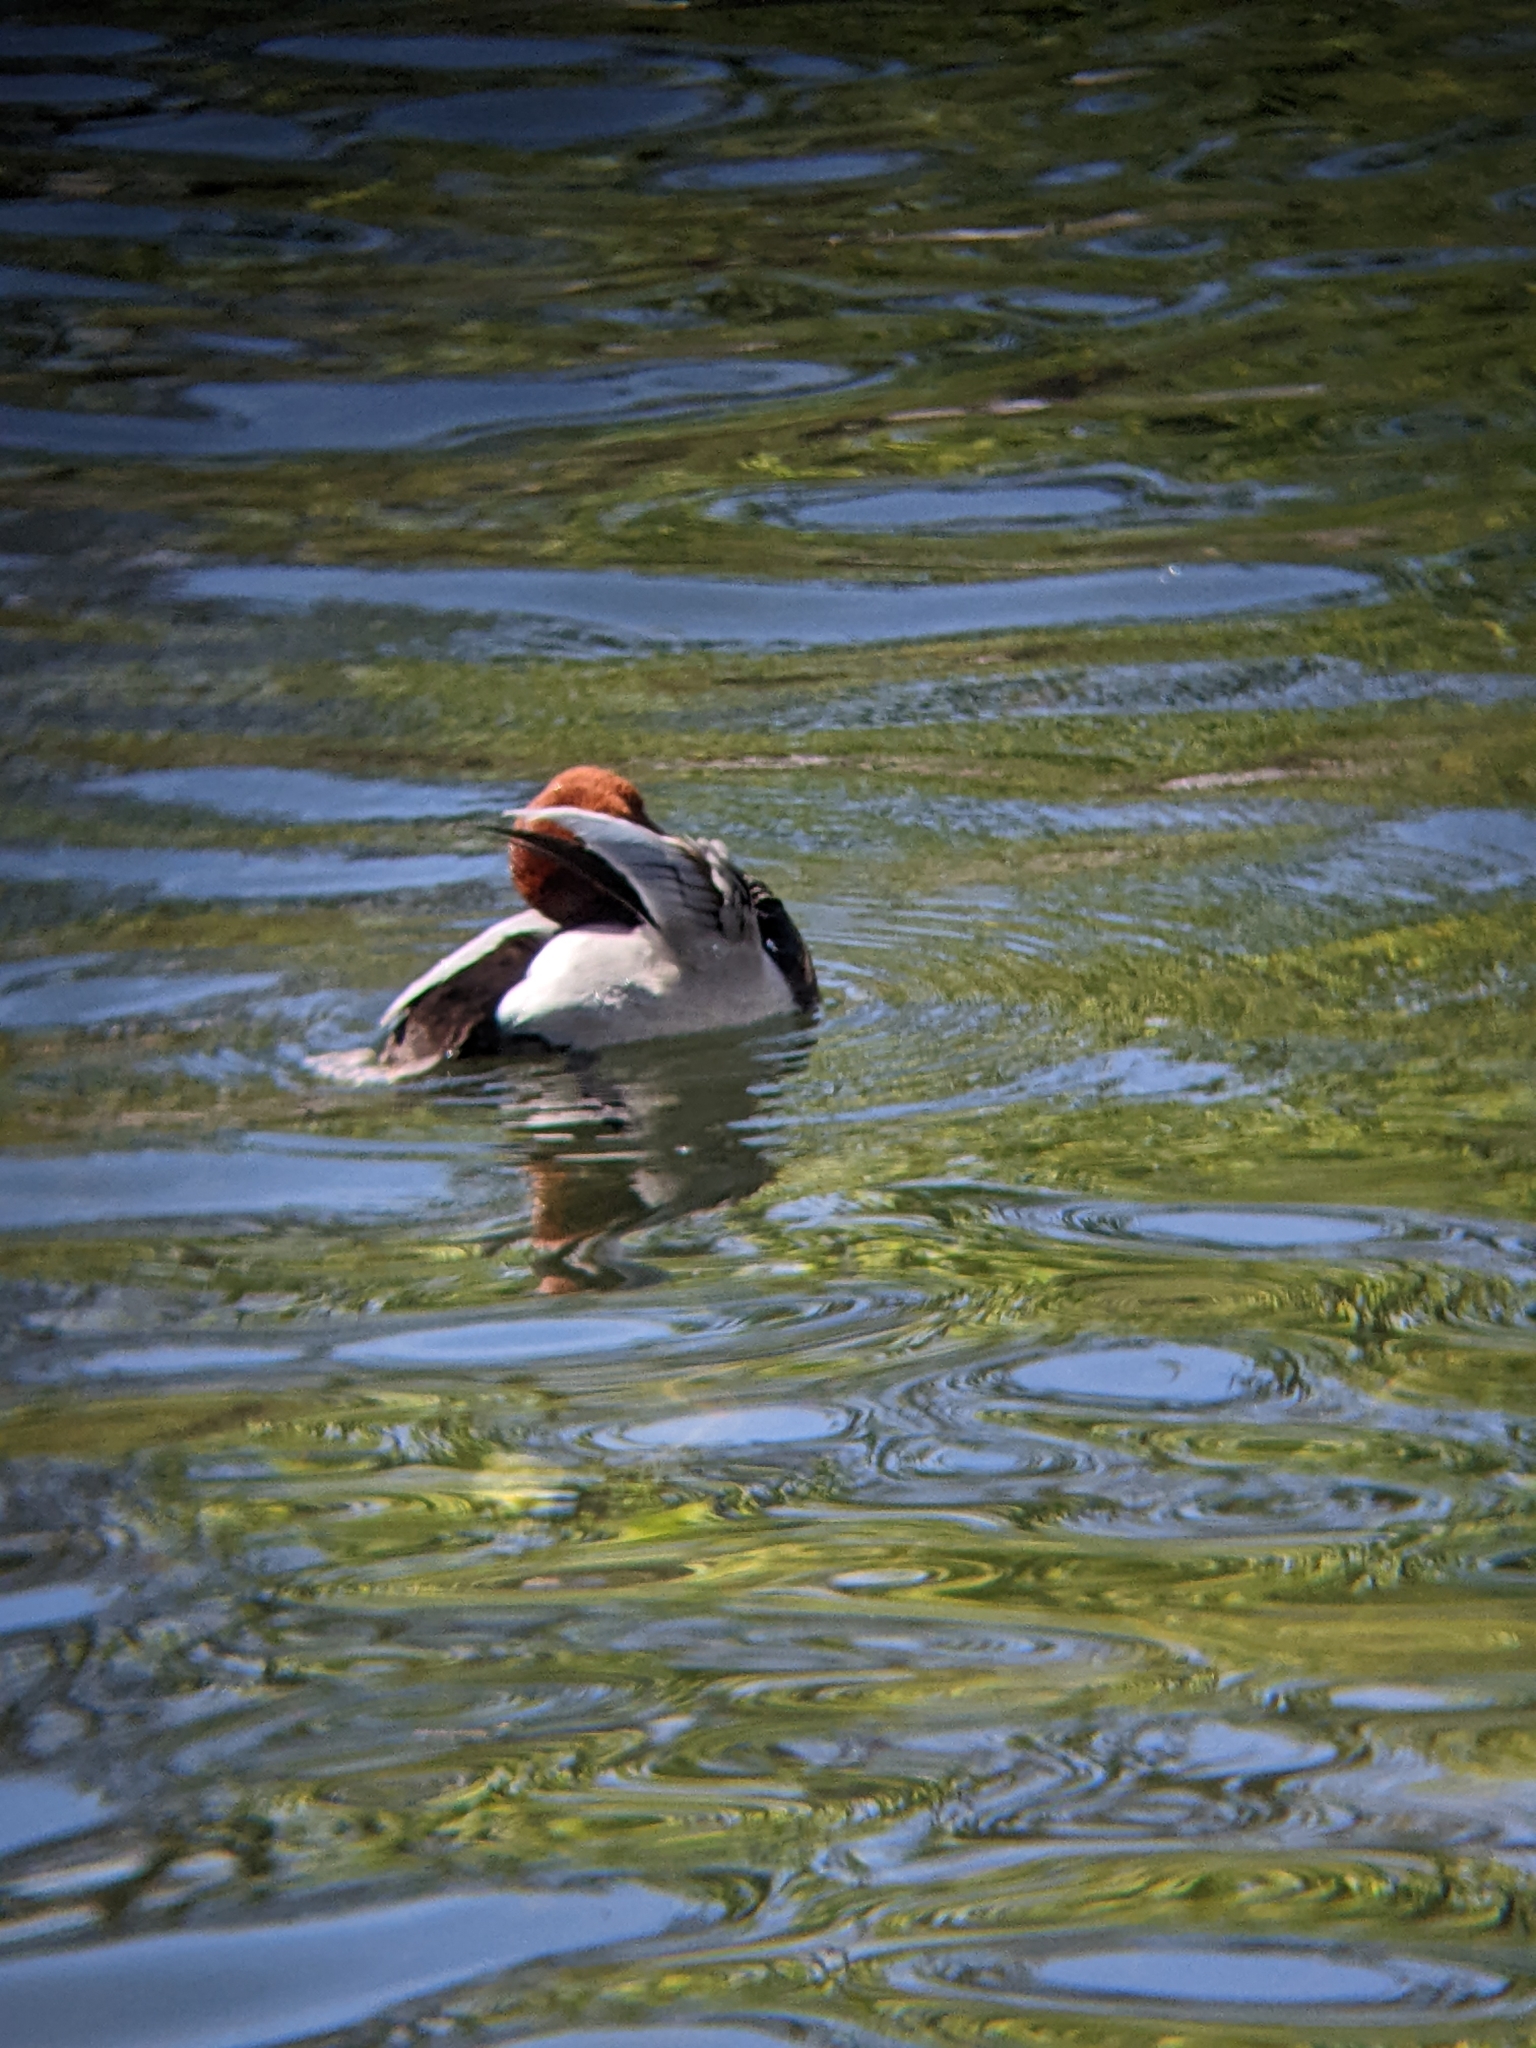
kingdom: Animalia
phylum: Chordata
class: Aves
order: Anseriformes
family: Anatidae
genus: Aythya
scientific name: Aythya ferina
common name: Common pochard
